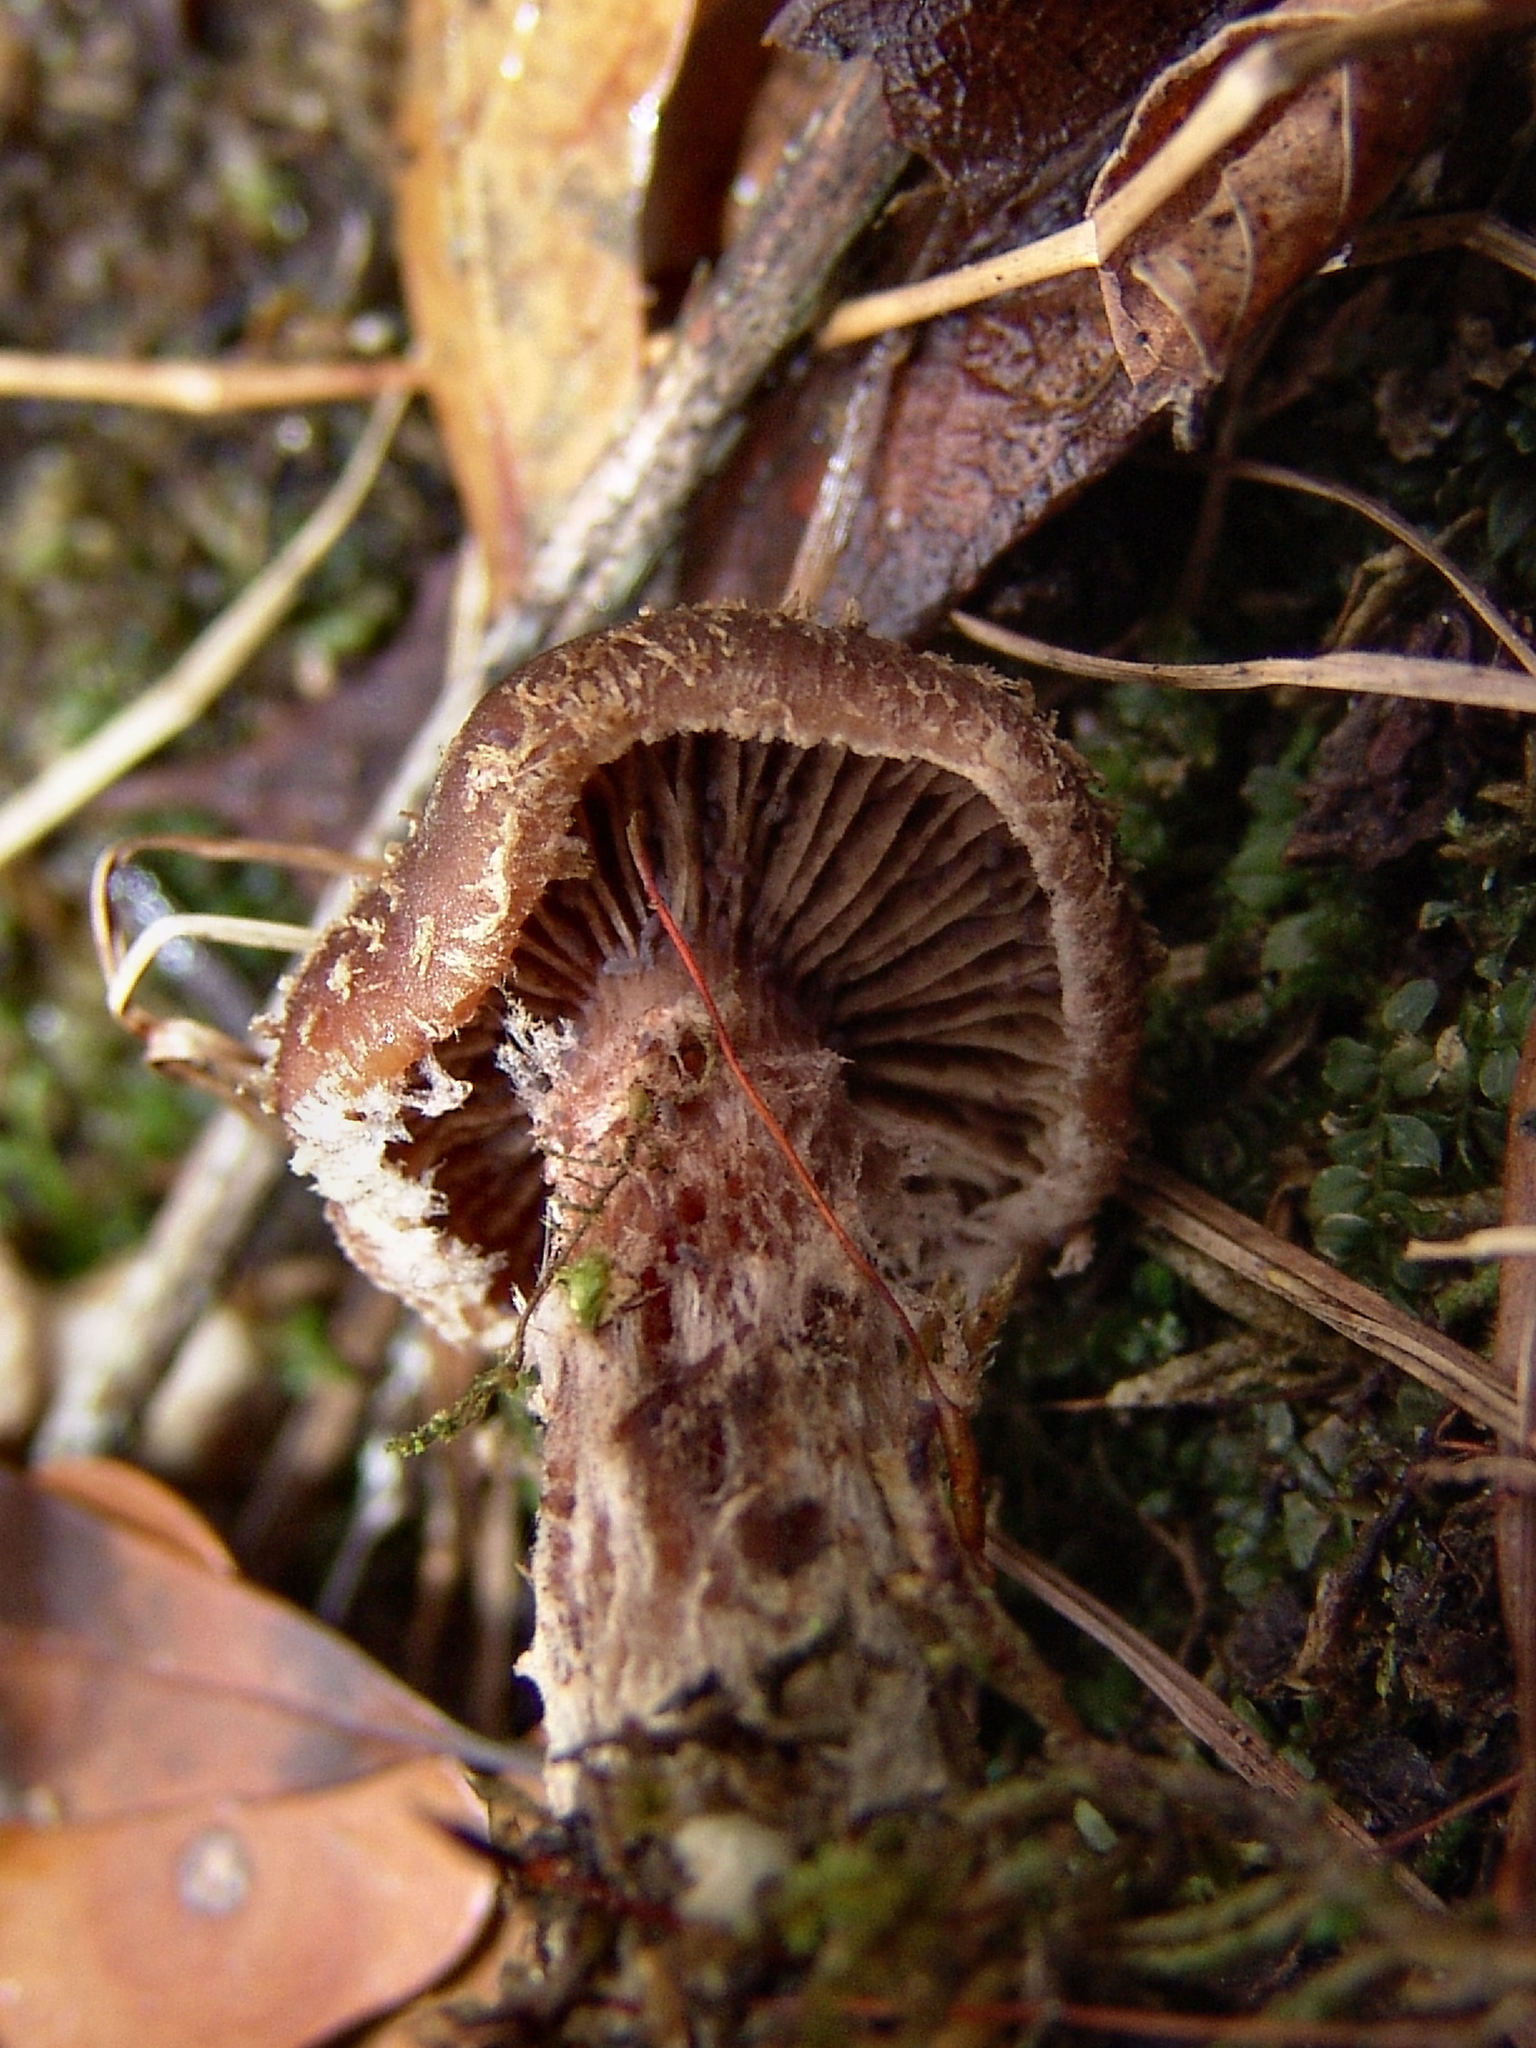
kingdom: Fungi
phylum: Basidiomycota
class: Agaricomycetes
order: Agaricales
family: Physalacriaceae
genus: Armillaria
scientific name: Armillaria gallica
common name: Bulbous honey fungus
